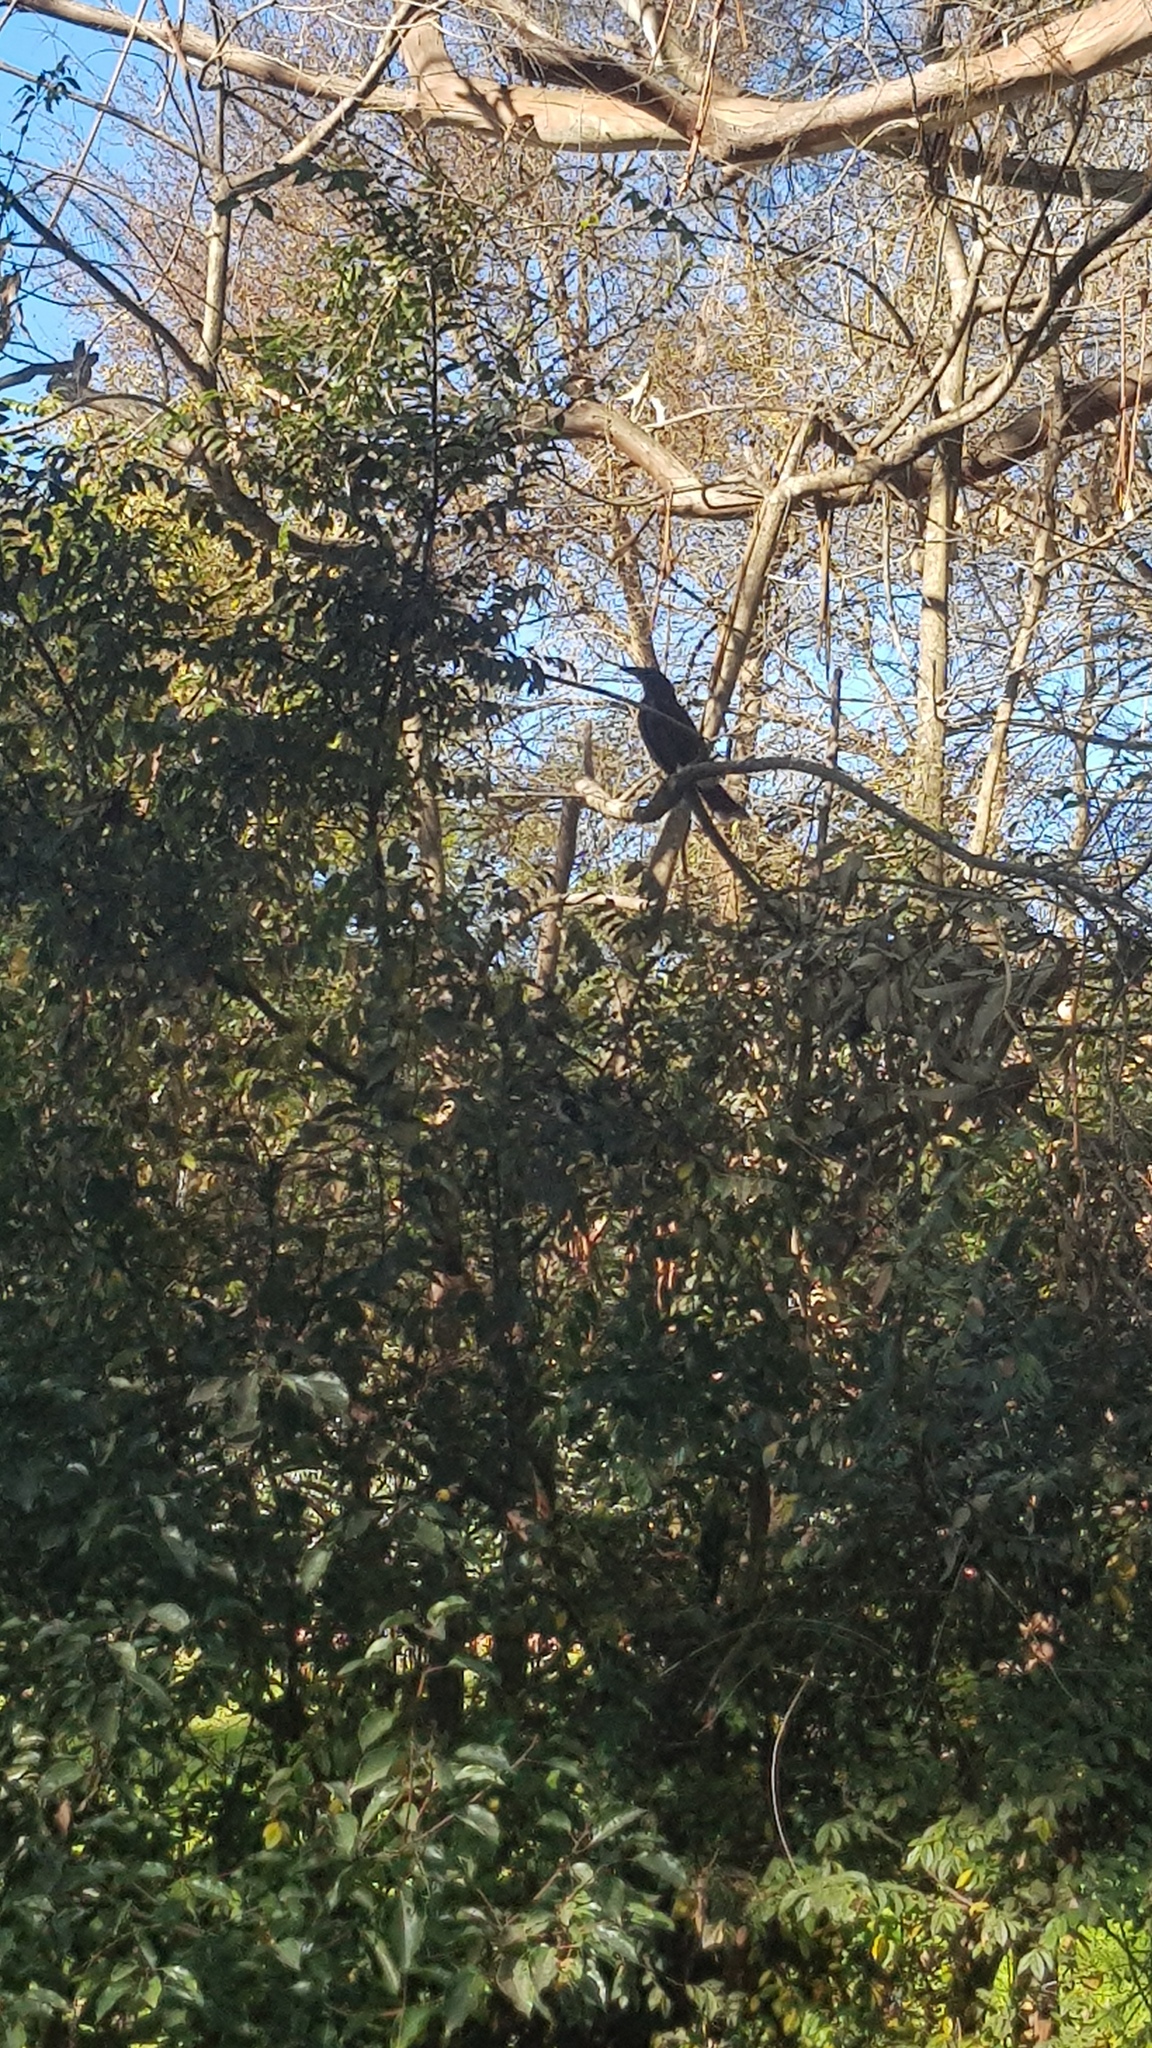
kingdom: Animalia
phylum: Chordata
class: Aves
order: Passeriformes
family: Cracticidae
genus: Strepera
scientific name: Strepera graculina
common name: Pied currawong
